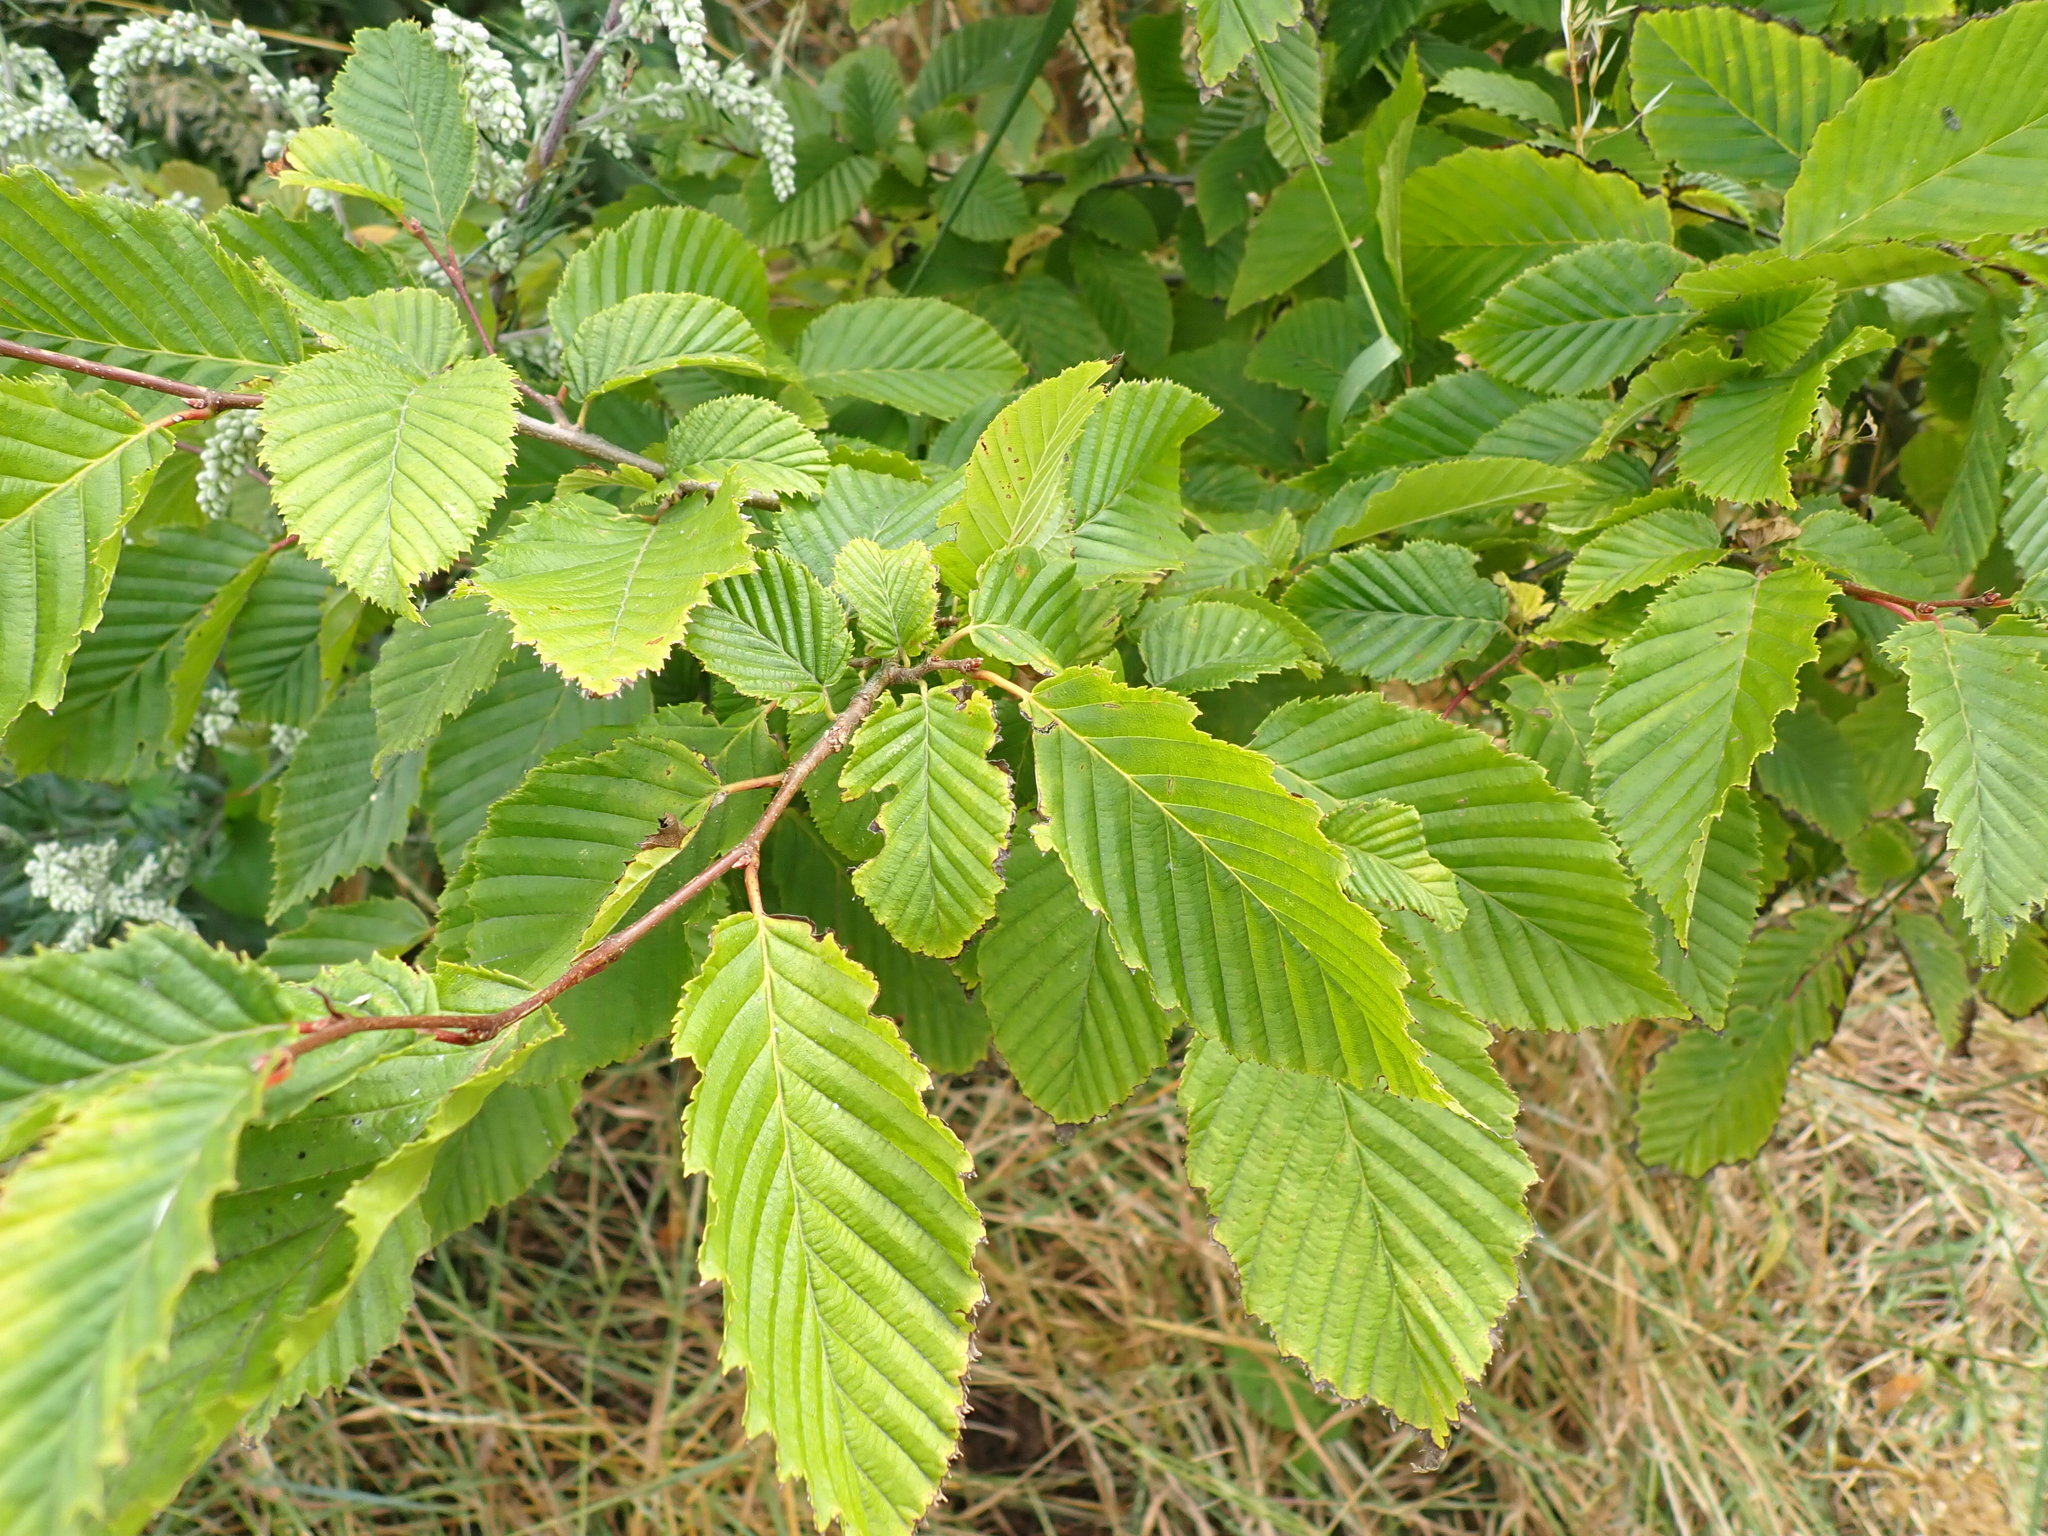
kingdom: Plantae
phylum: Tracheophyta
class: Magnoliopsida
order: Fagales
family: Betulaceae
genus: Carpinus
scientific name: Carpinus betulus
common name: Hornbeam
